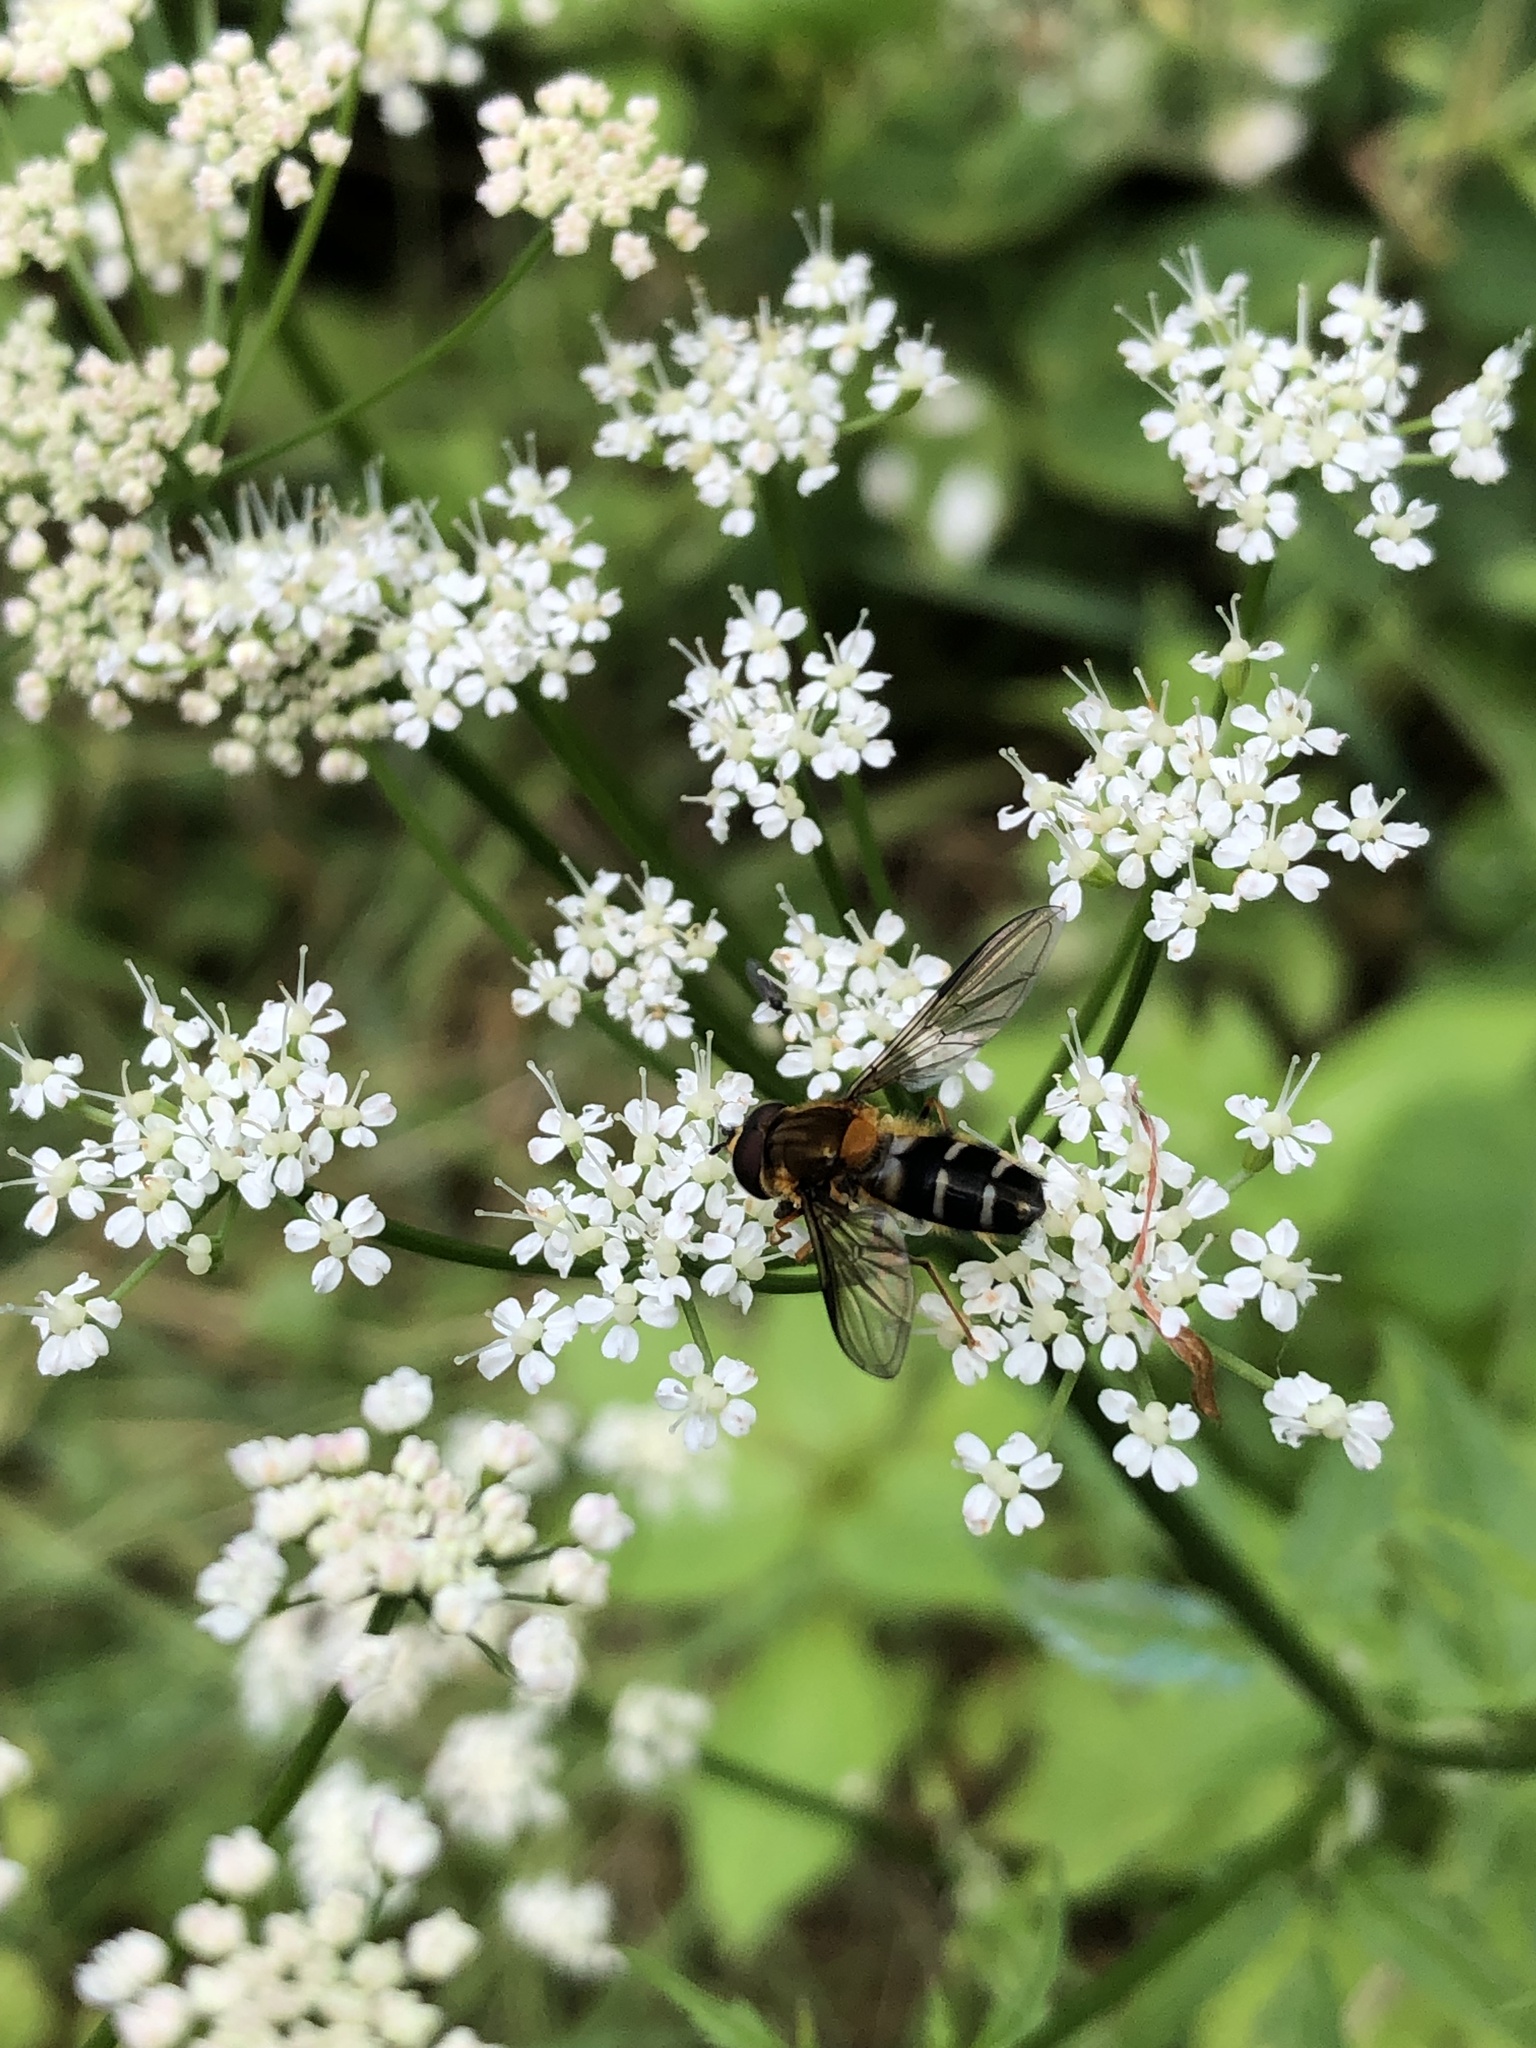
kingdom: Animalia
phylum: Arthropoda
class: Insecta
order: Diptera
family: Syrphidae
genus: Leucozona
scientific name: Leucozona glaucia
